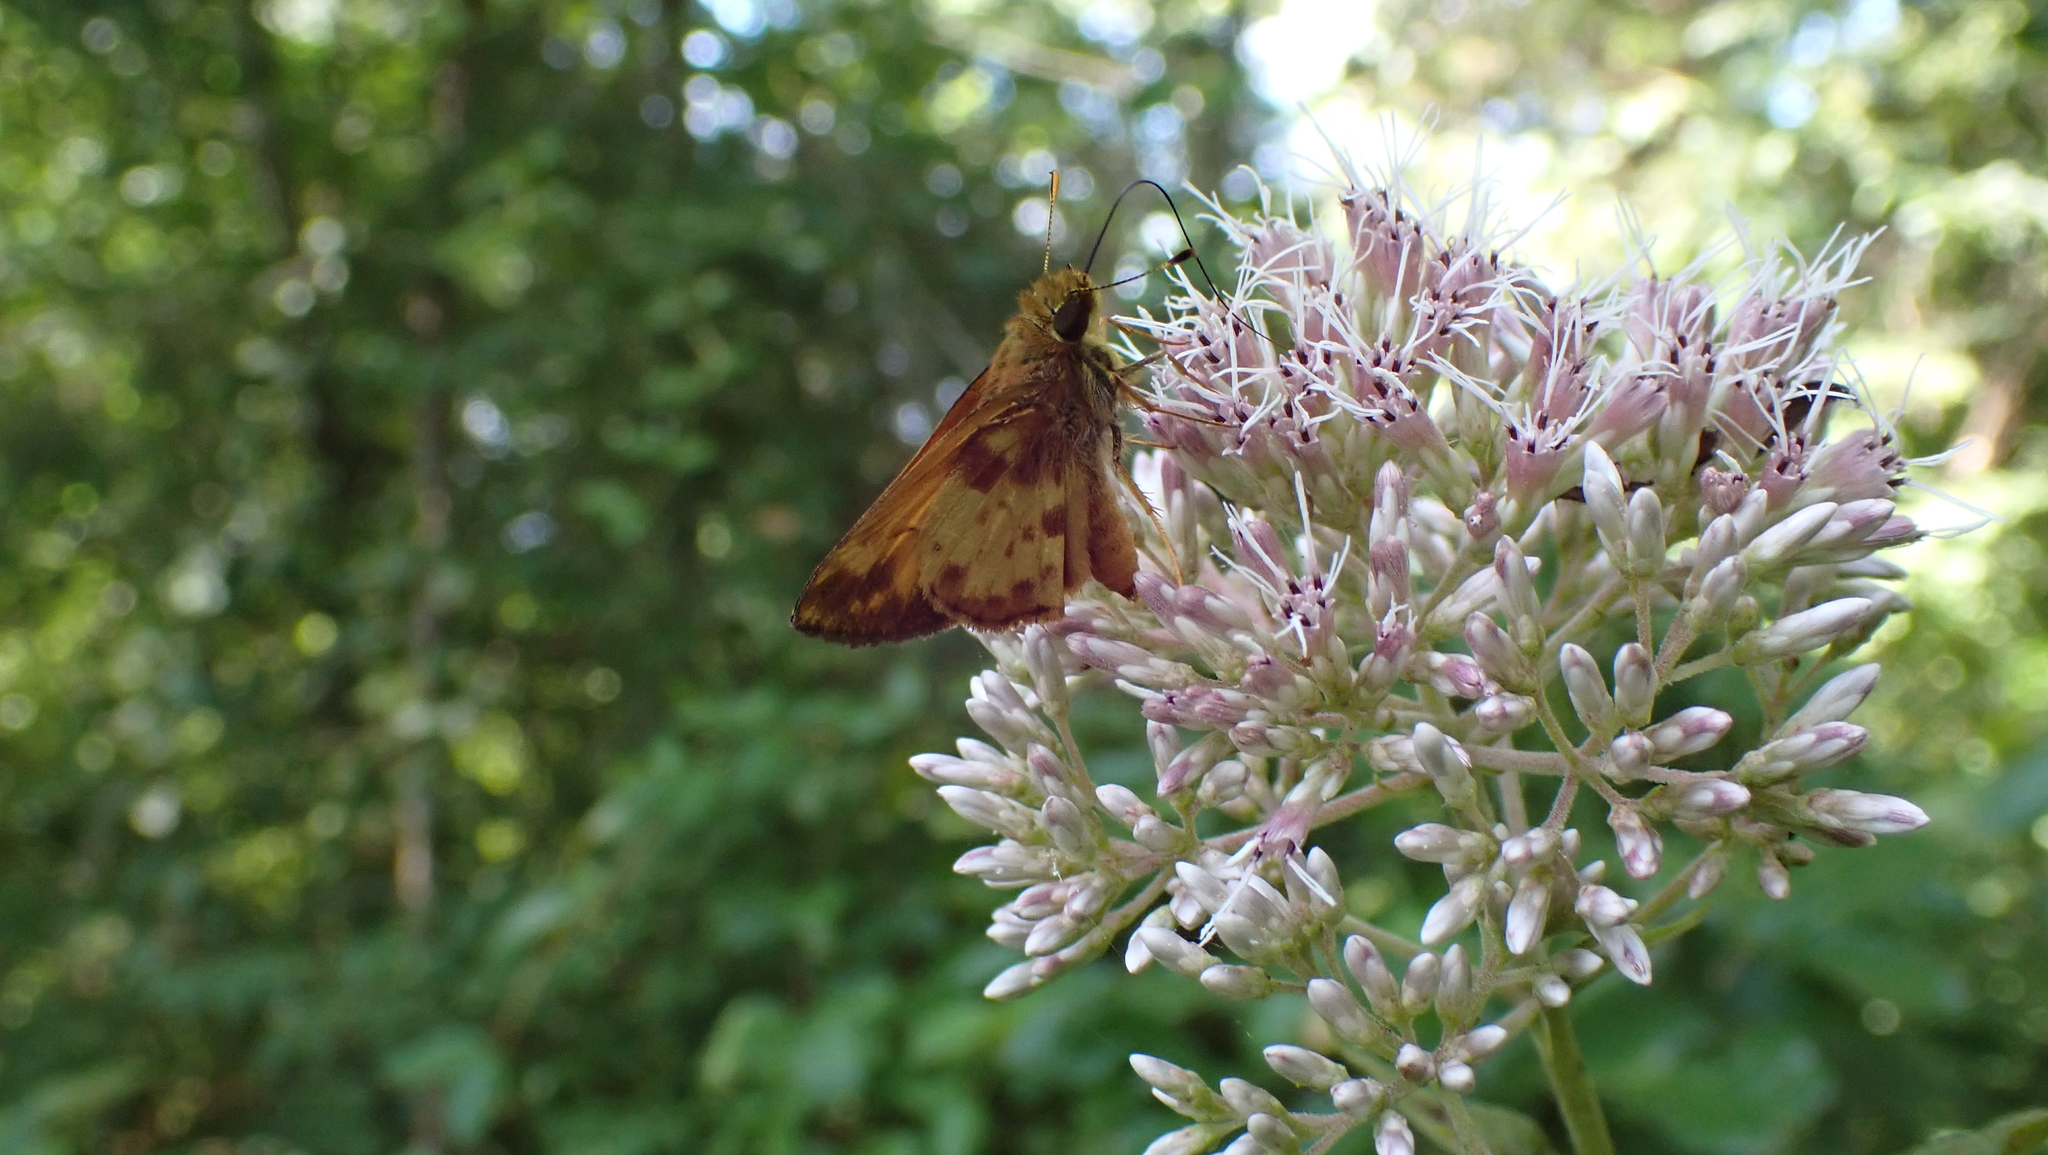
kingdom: Animalia
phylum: Arthropoda
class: Insecta
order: Lepidoptera
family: Hesperiidae
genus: Lon
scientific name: Lon zabulon
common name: Zabulon skipper
